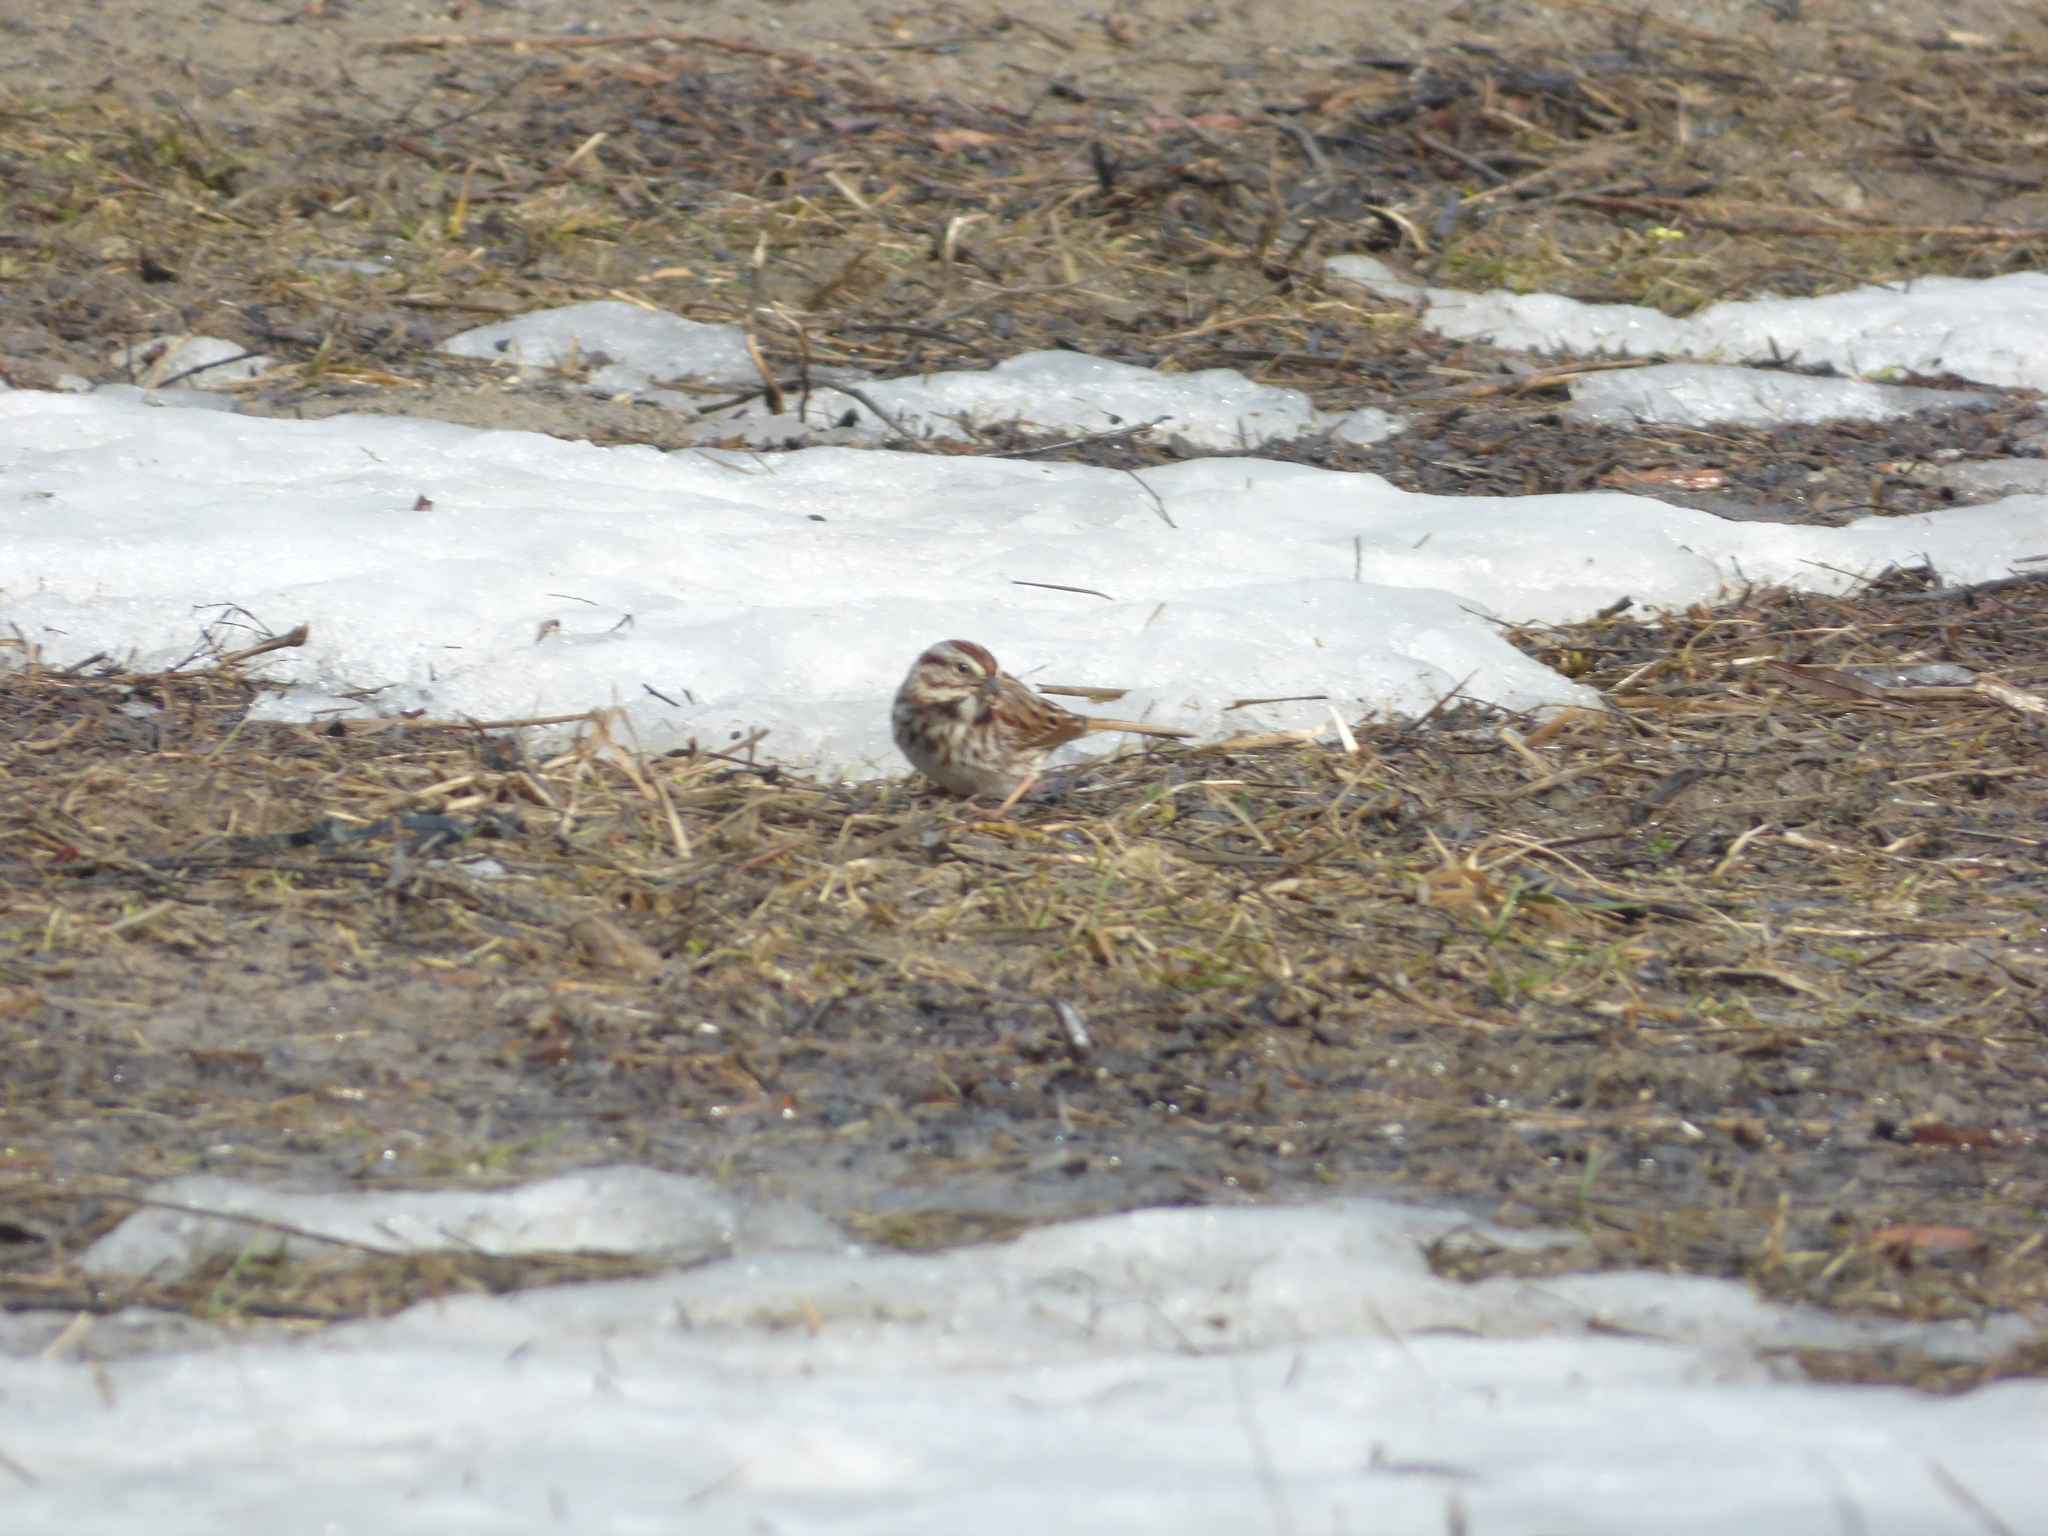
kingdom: Animalia
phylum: Chordata
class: Aves
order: Passeriformes
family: Passerellidae
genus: Melospiza
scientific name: Melospiza melodia
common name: Song sparrow
